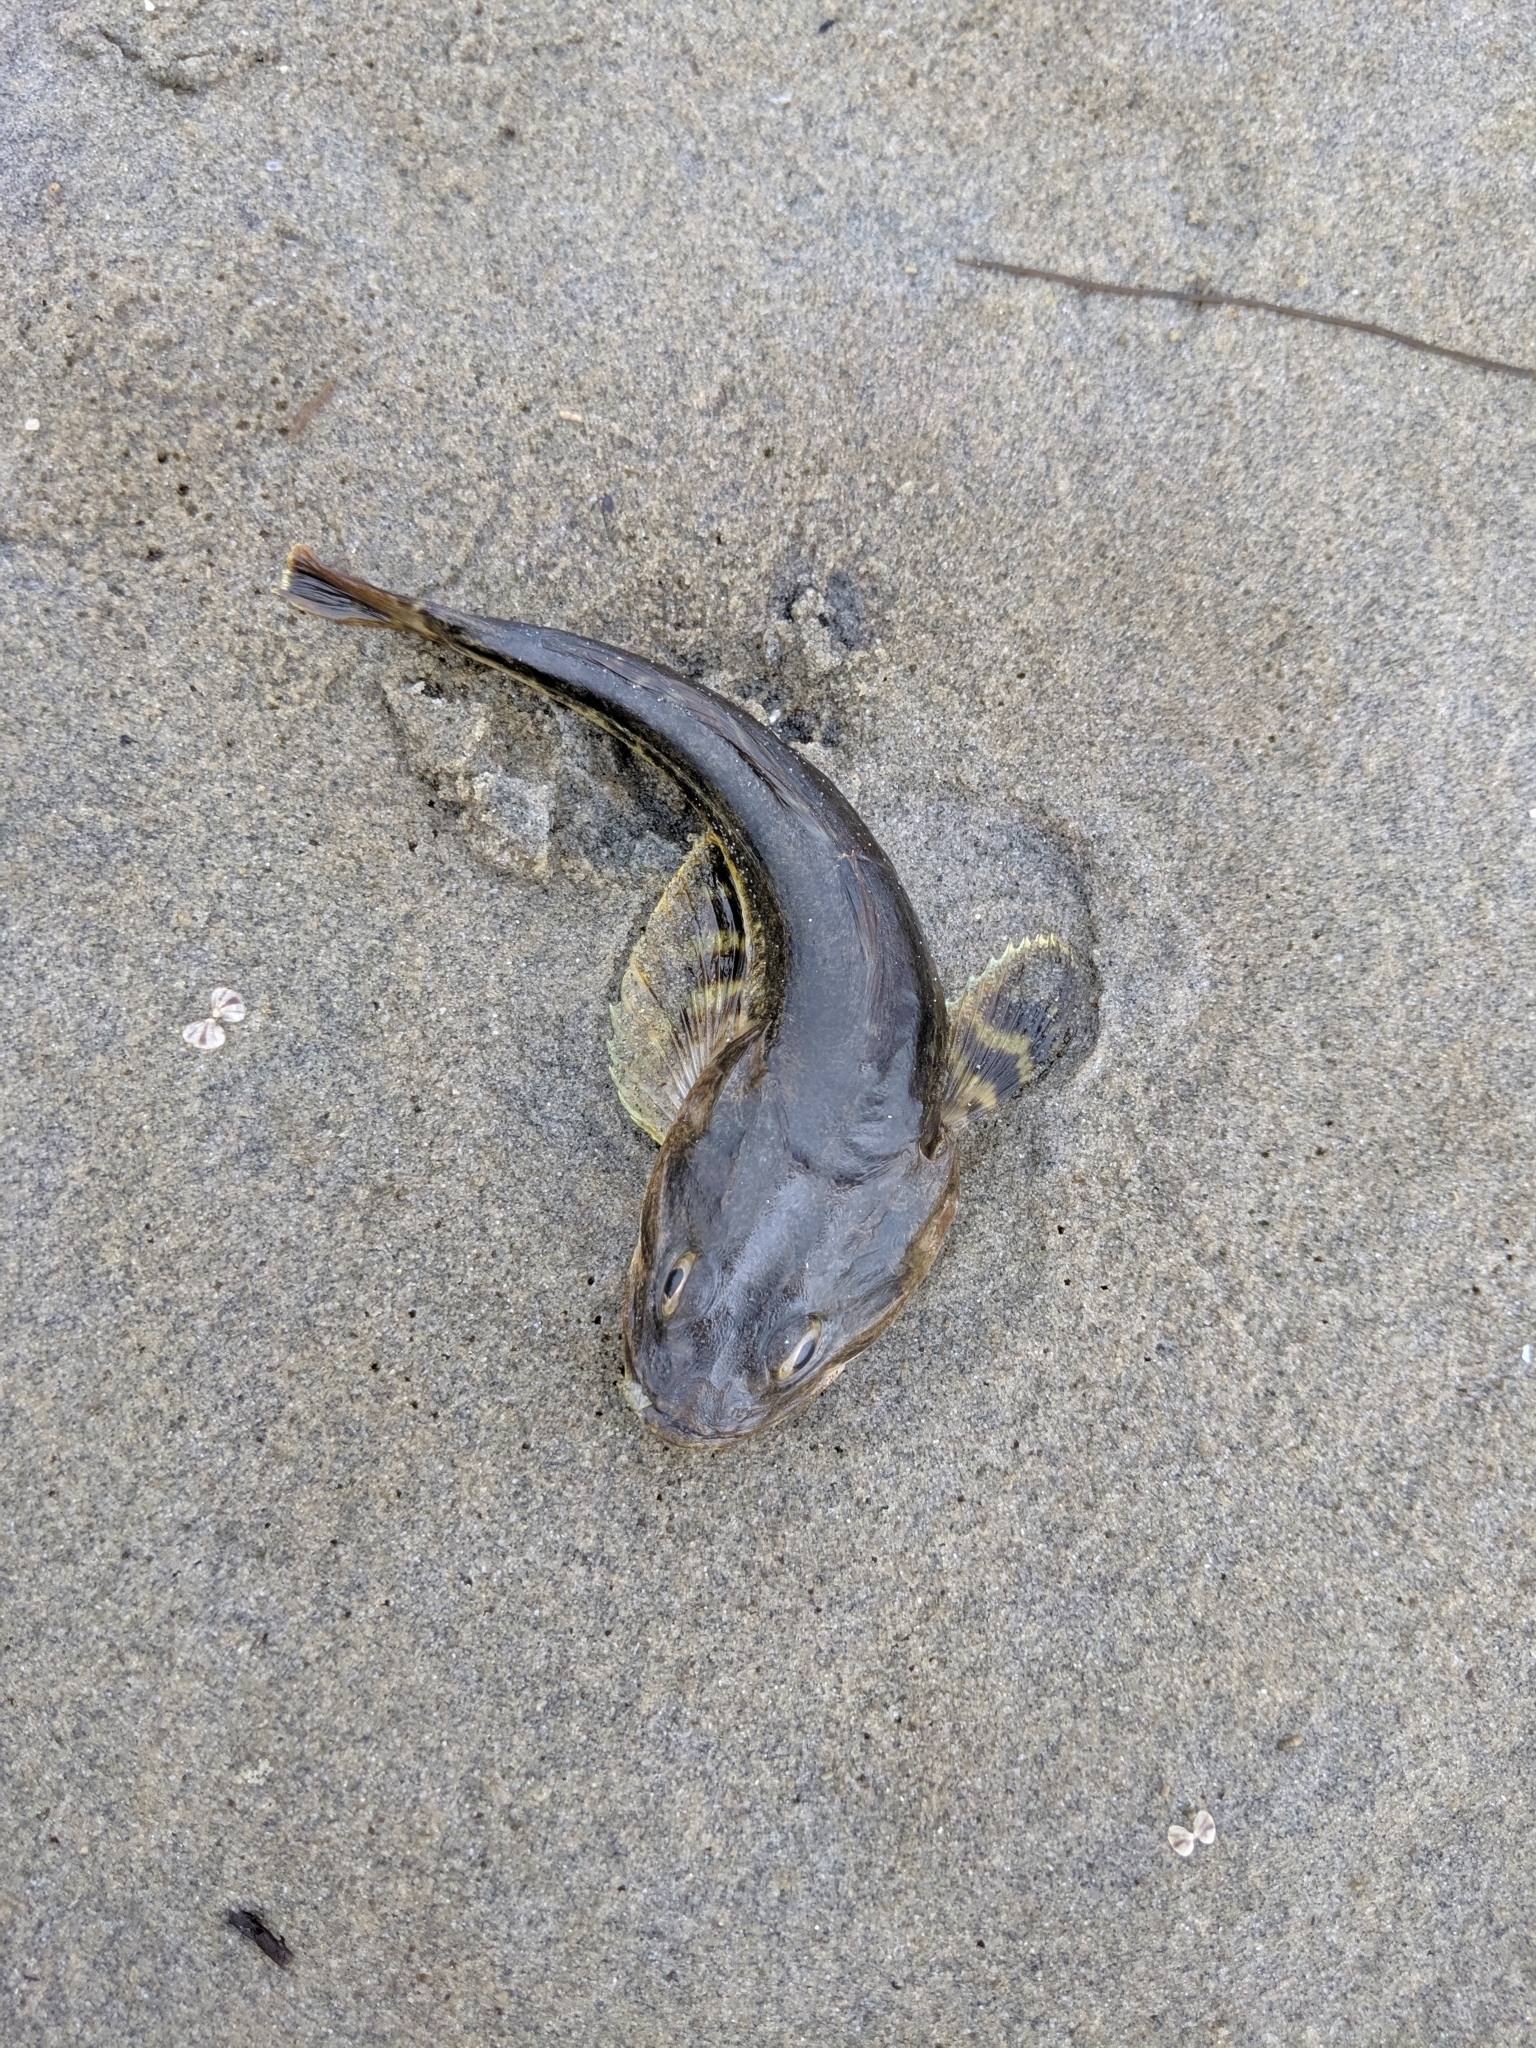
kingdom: Animalia
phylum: Chordata
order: Scorpaeniformes
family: Cottidae
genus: Leptocottus
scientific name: Leptocottus armatus
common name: Pacific staghorn sculpin
